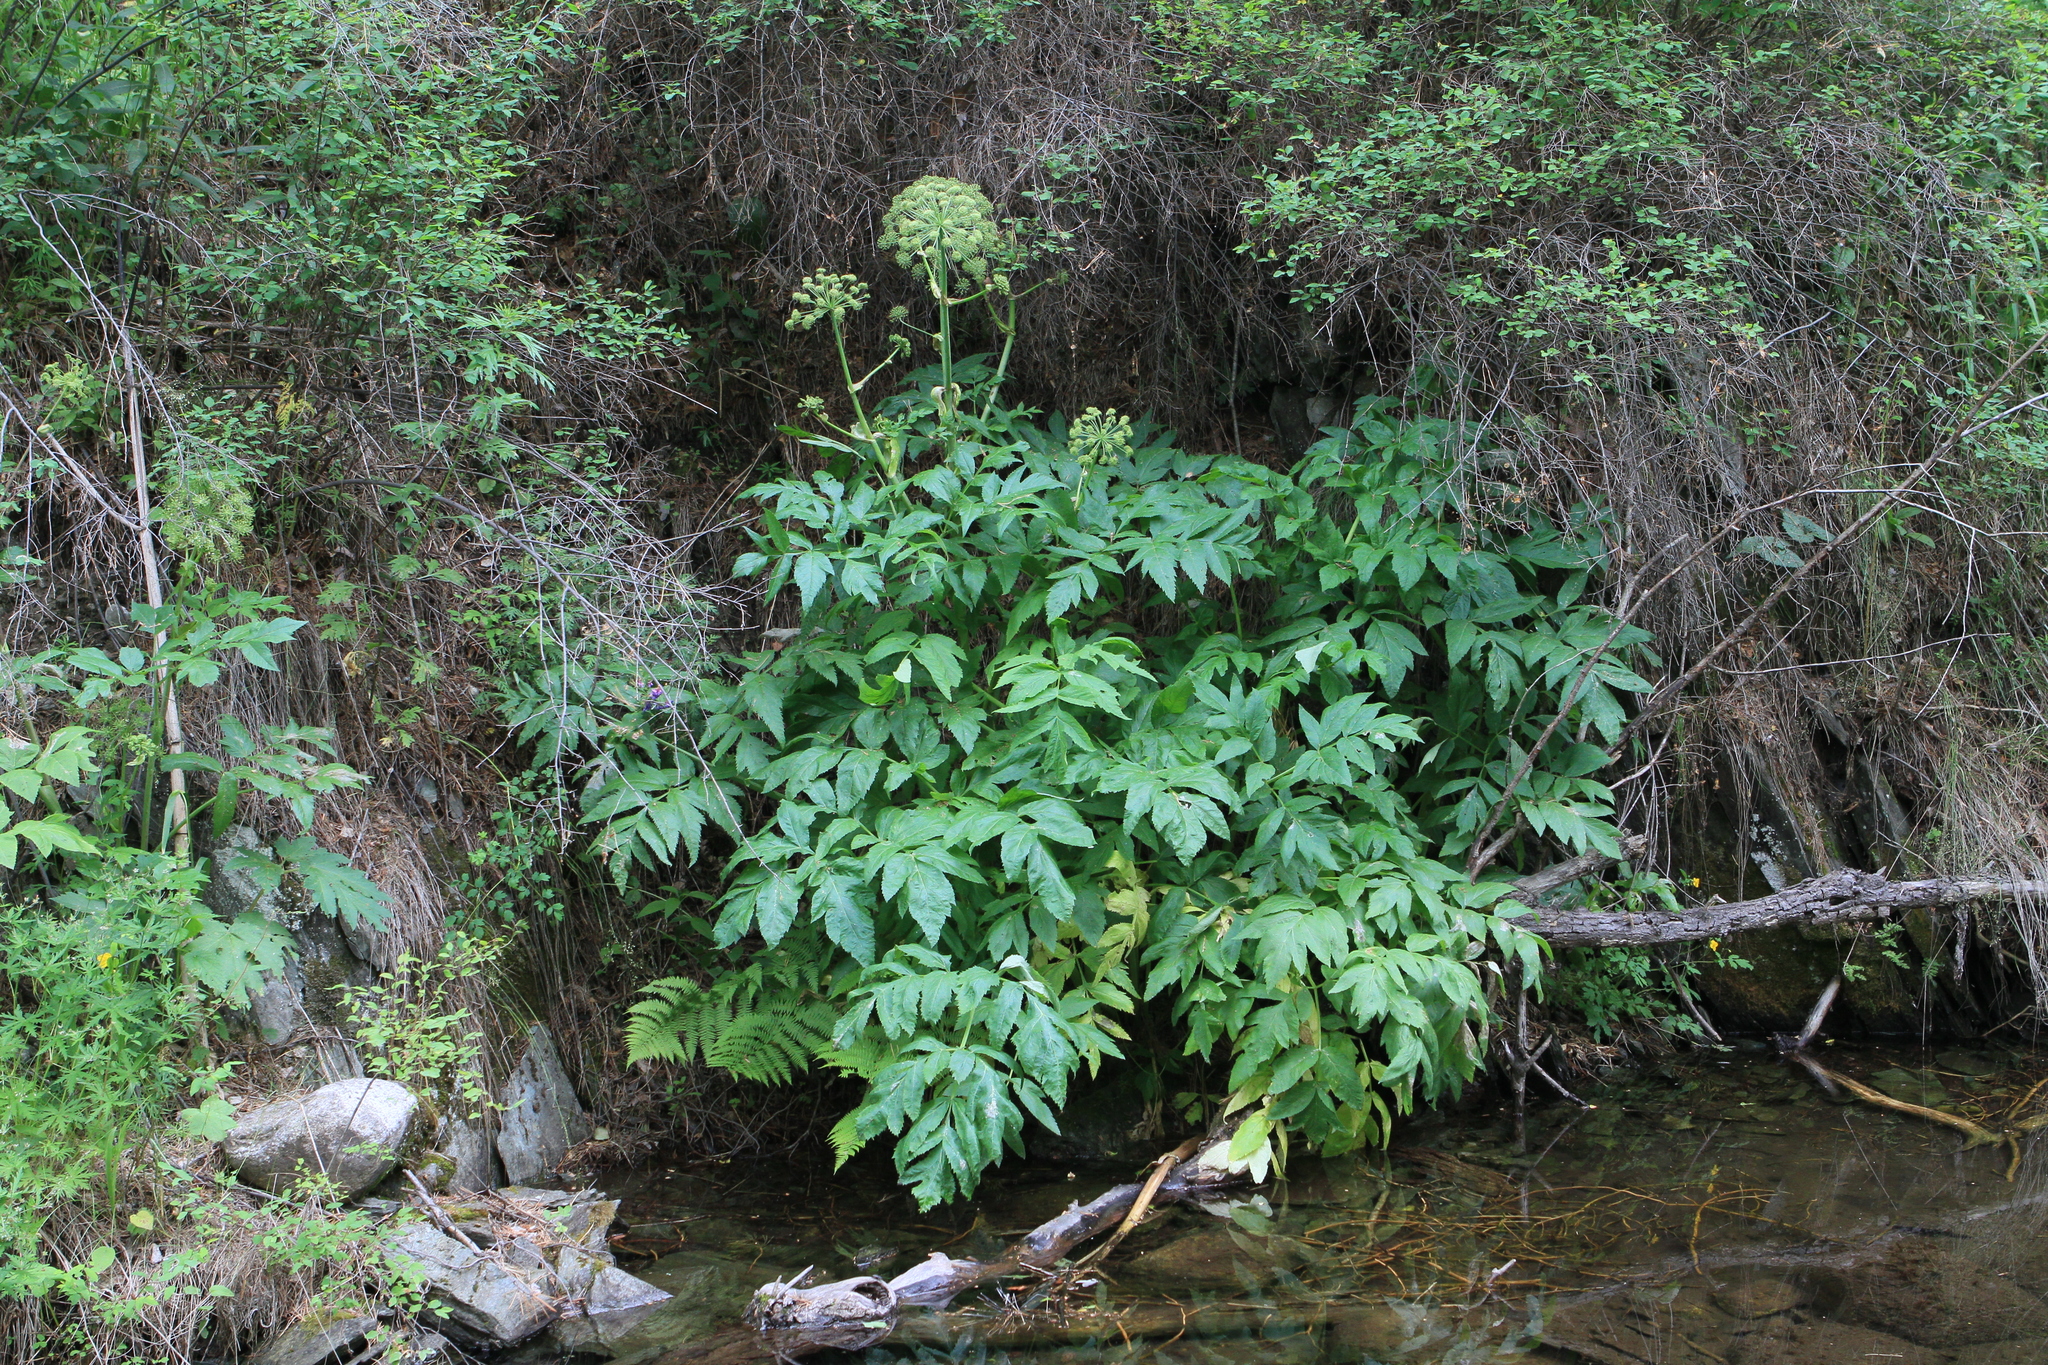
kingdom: Plantae
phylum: Tracheophyta
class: Magnoliopsida
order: Apiales
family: Apiaceae
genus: Angelica
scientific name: Angelica decurrens
